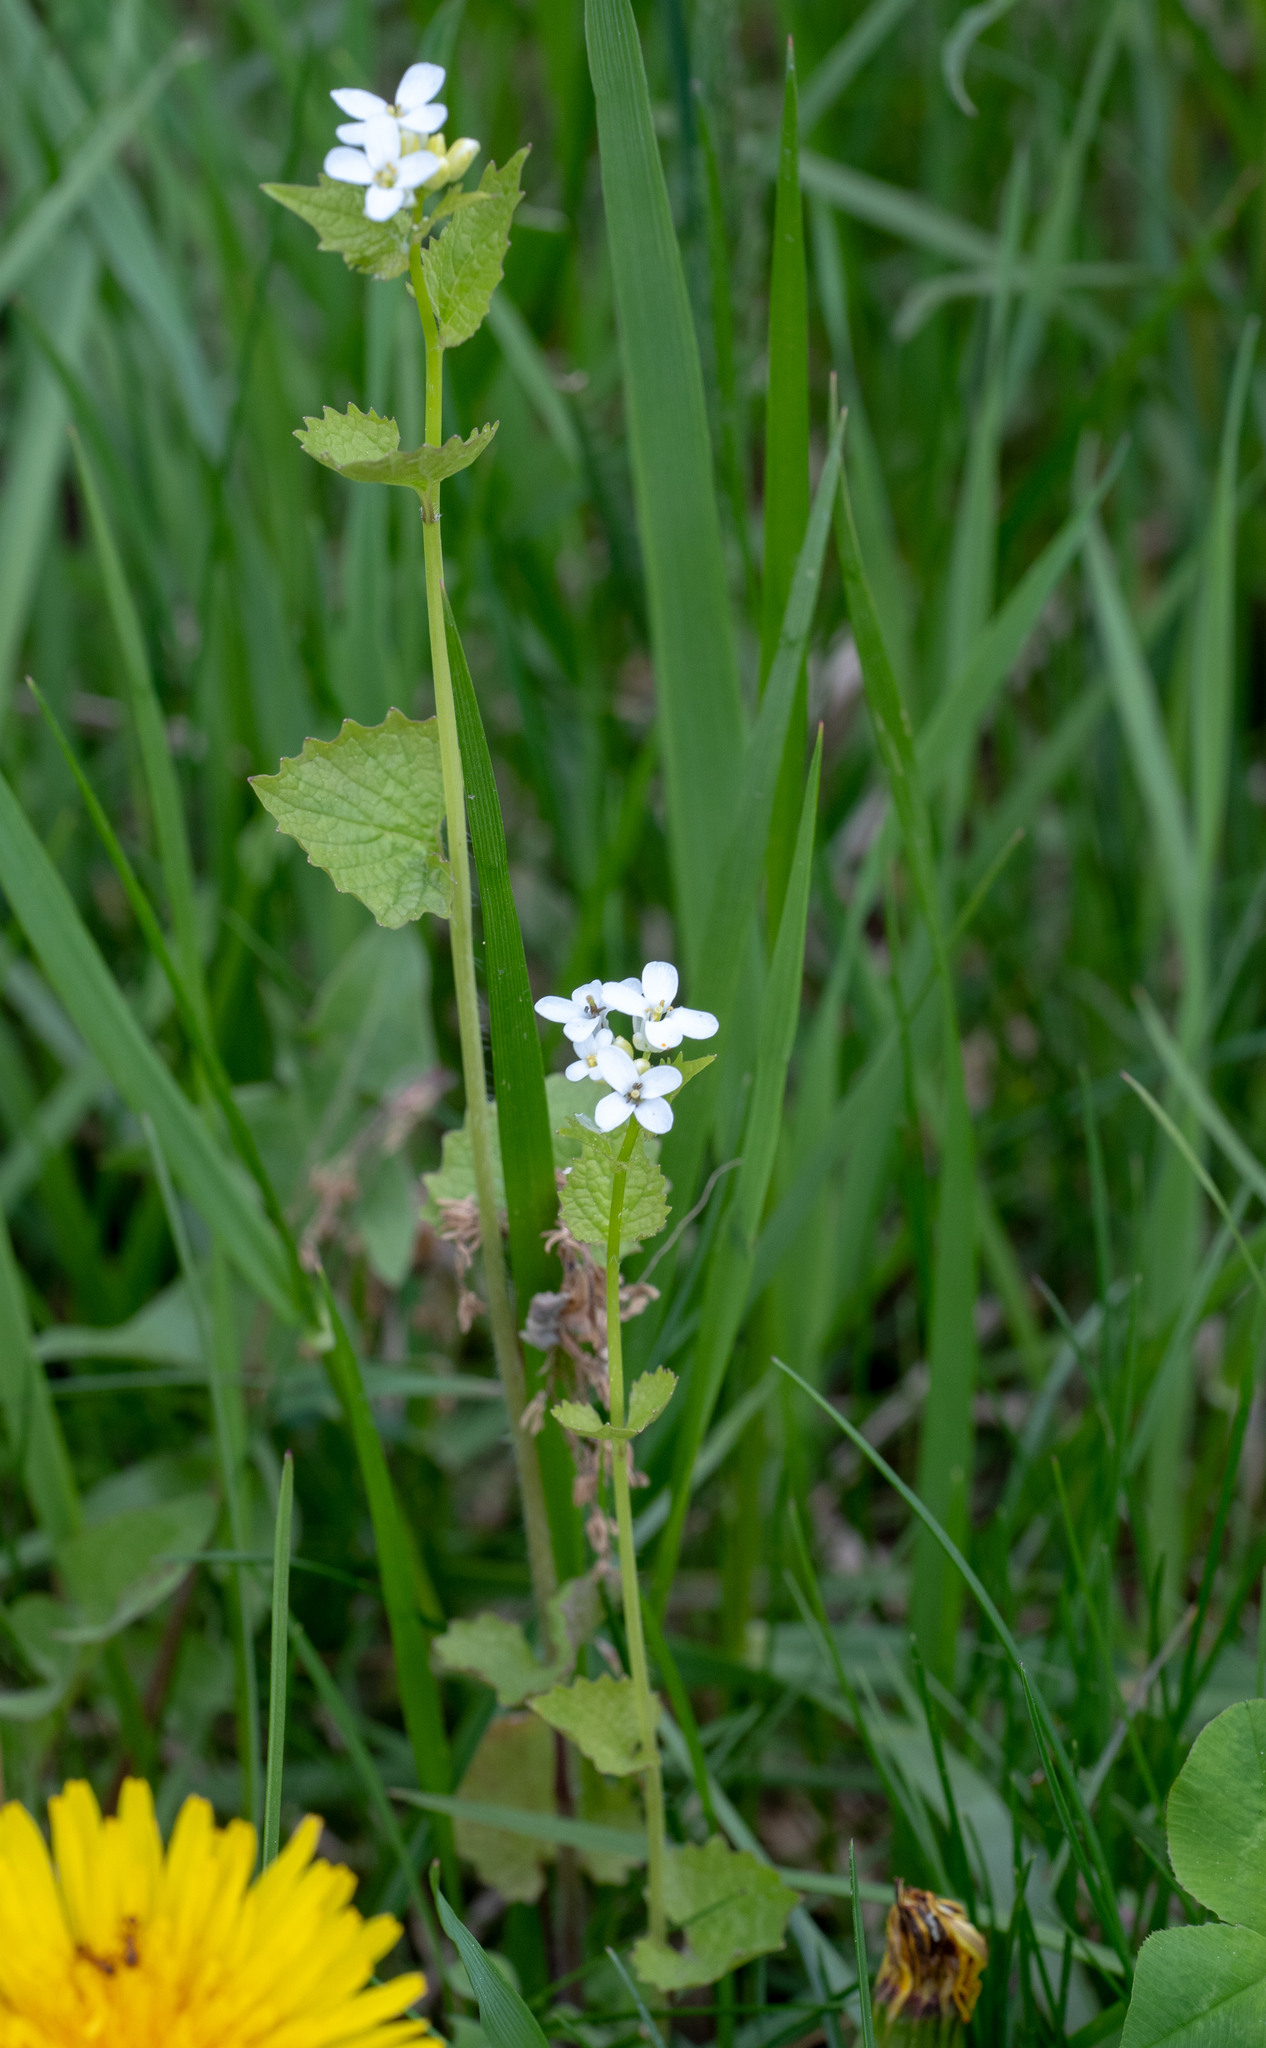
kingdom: Plantae
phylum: Tracheophyta
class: Magnoliopsida
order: Brassicales
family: Brassicaceae
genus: Alliaria
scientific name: Alliaria petiolata
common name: Garlic mustard
